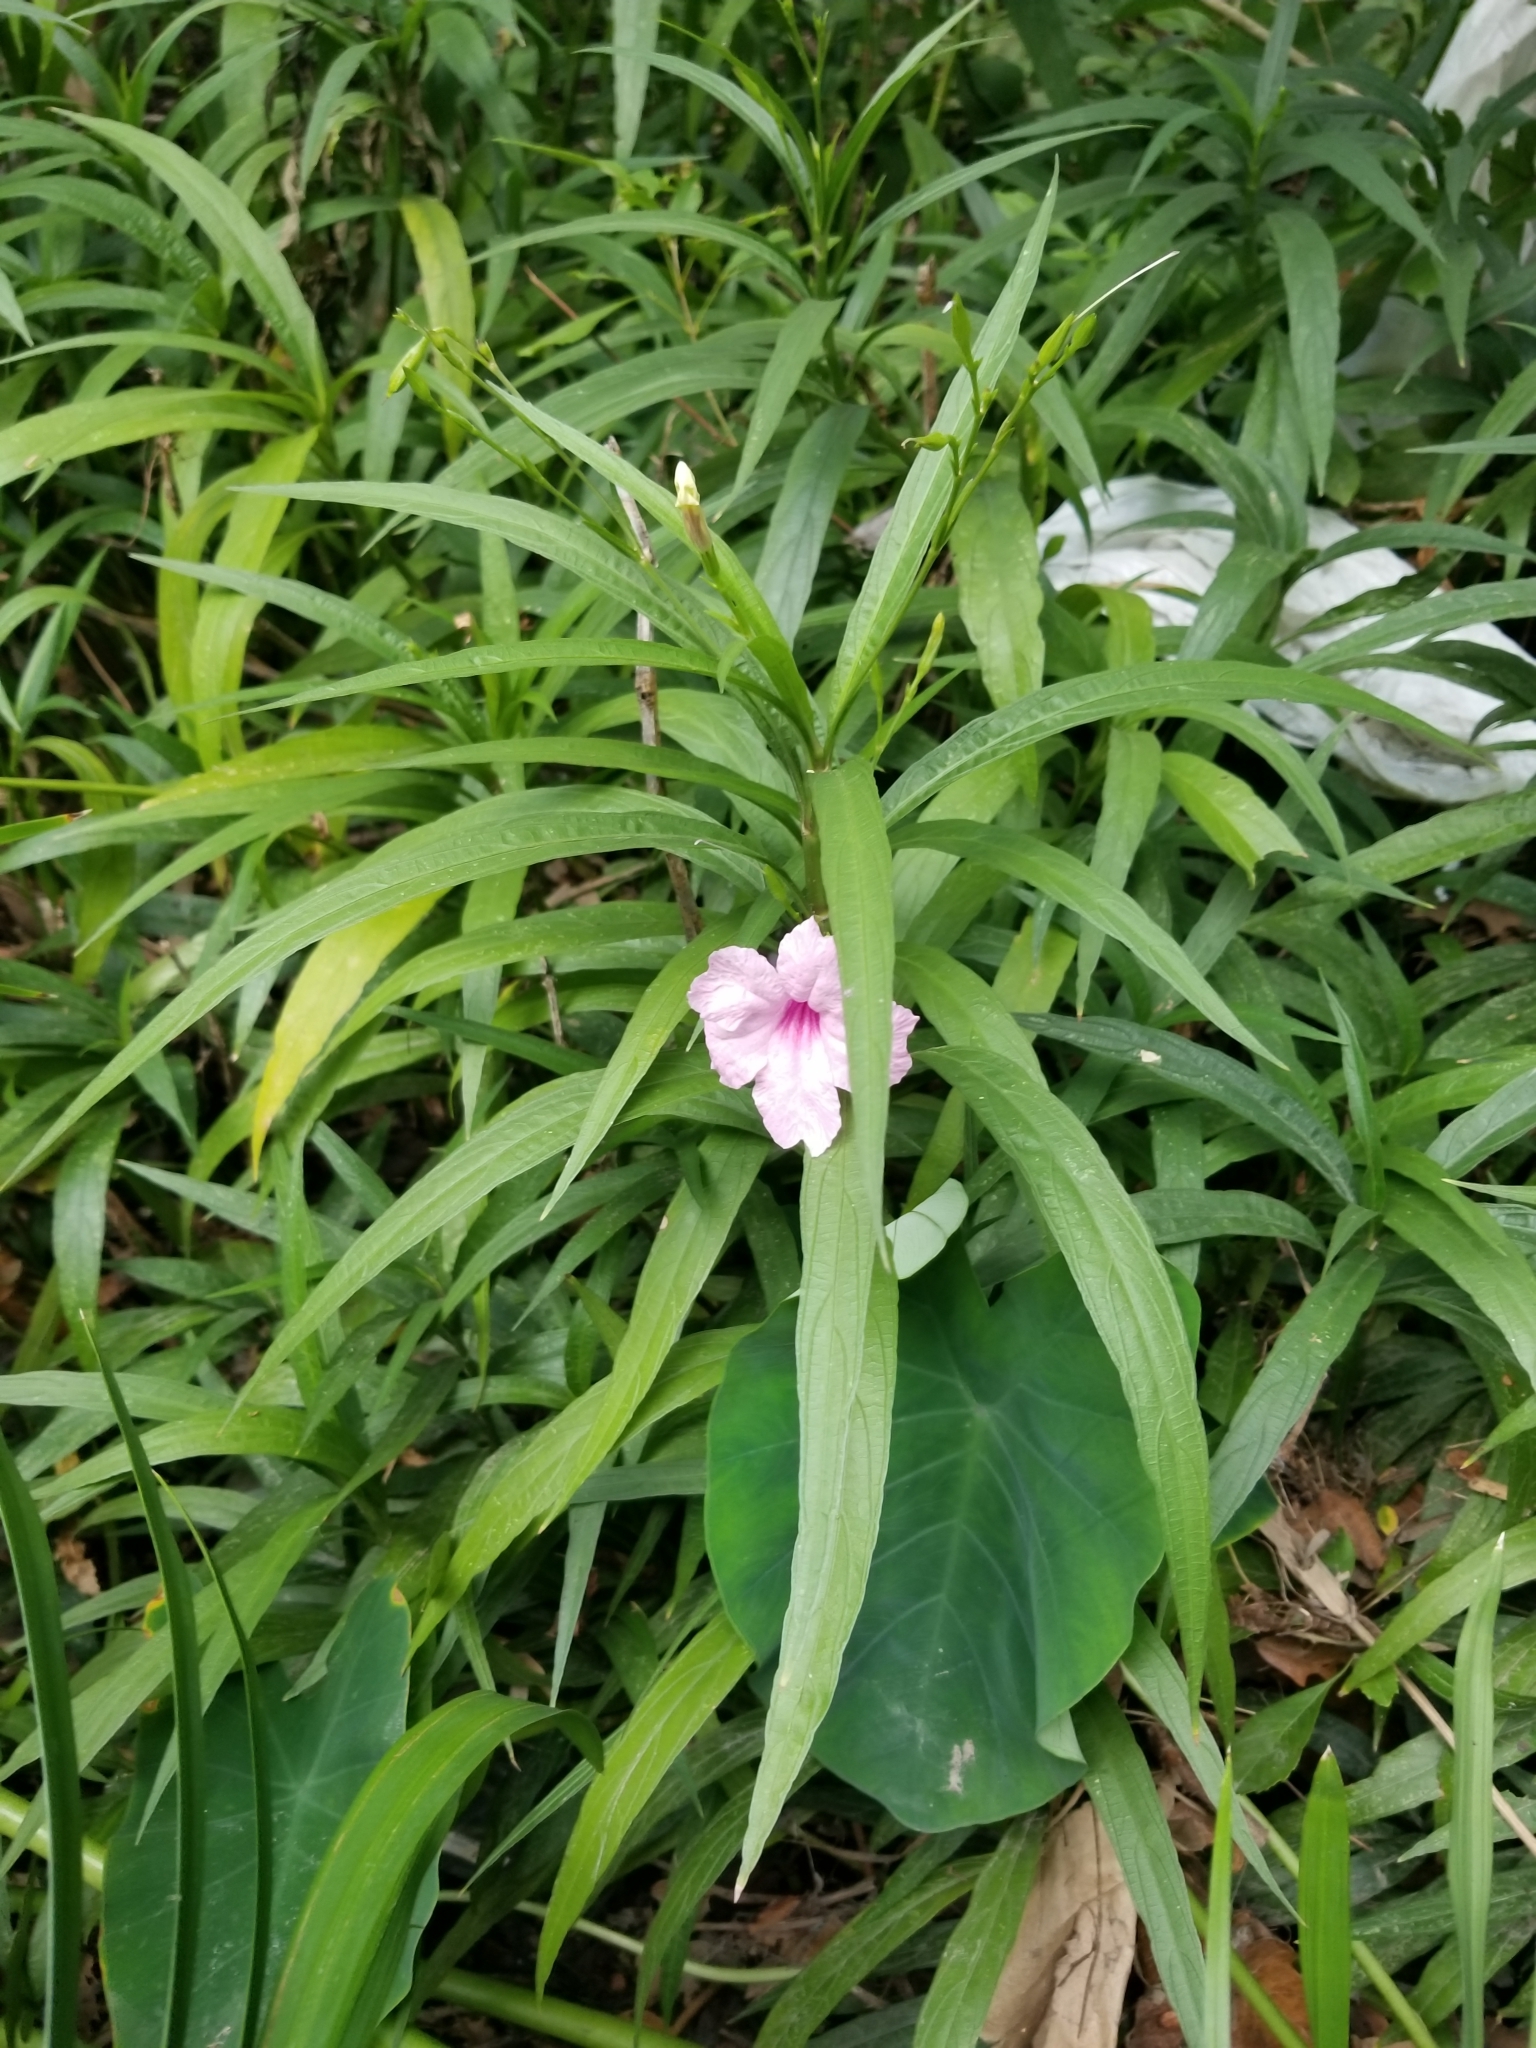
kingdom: Plantae
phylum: Tracheophyta
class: Magnoliopsida
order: Lamiales
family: Acanthaceae
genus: Ruellia
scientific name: Ruellia simplex
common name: Softseed wild petunia
